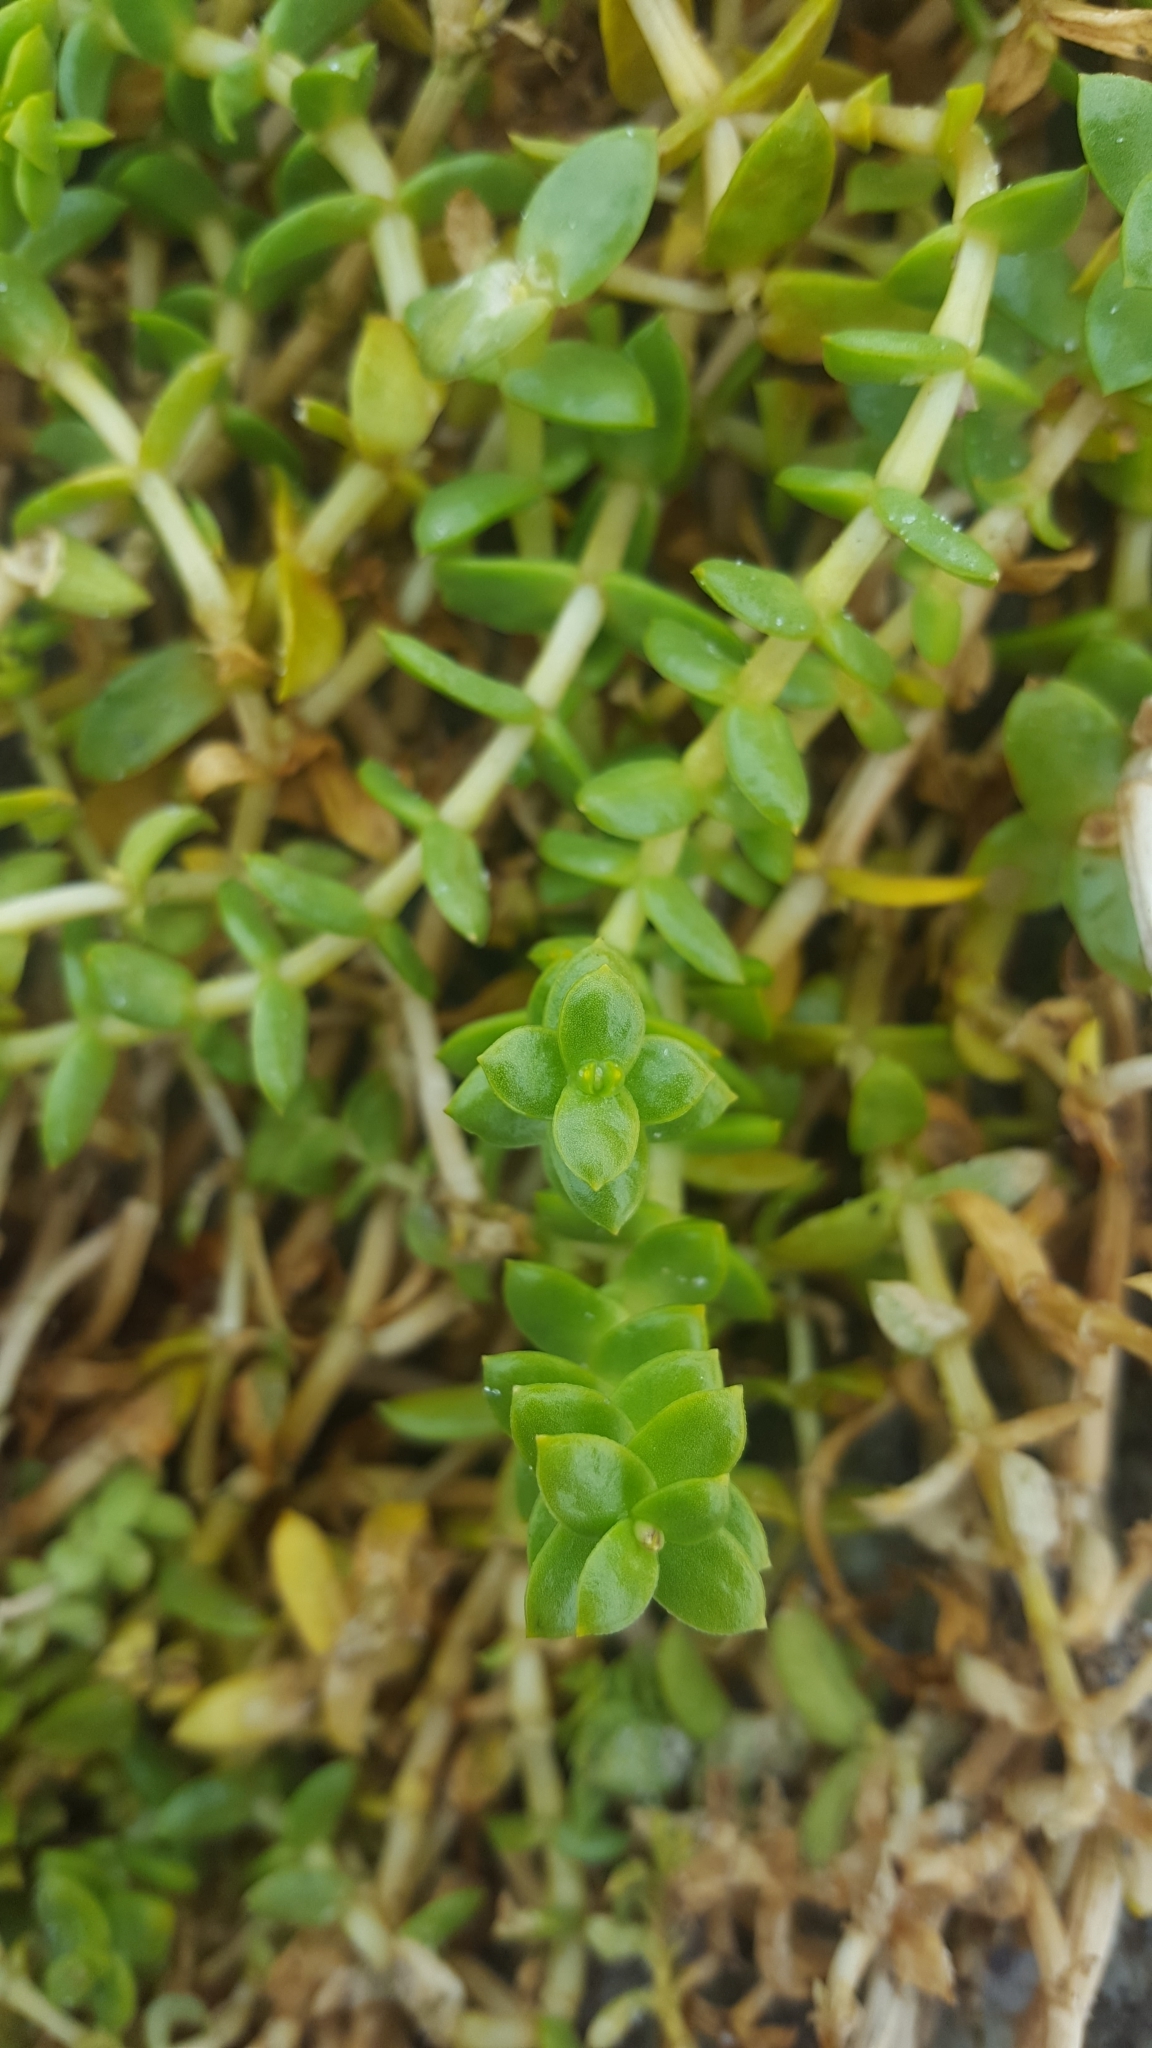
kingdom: Plantae
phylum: Tracheophyta
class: Magnoliopsida
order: Caryophyllales
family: Caryophyllaceae
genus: Honckenya
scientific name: Honckenya peploides
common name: Sea sandwort
